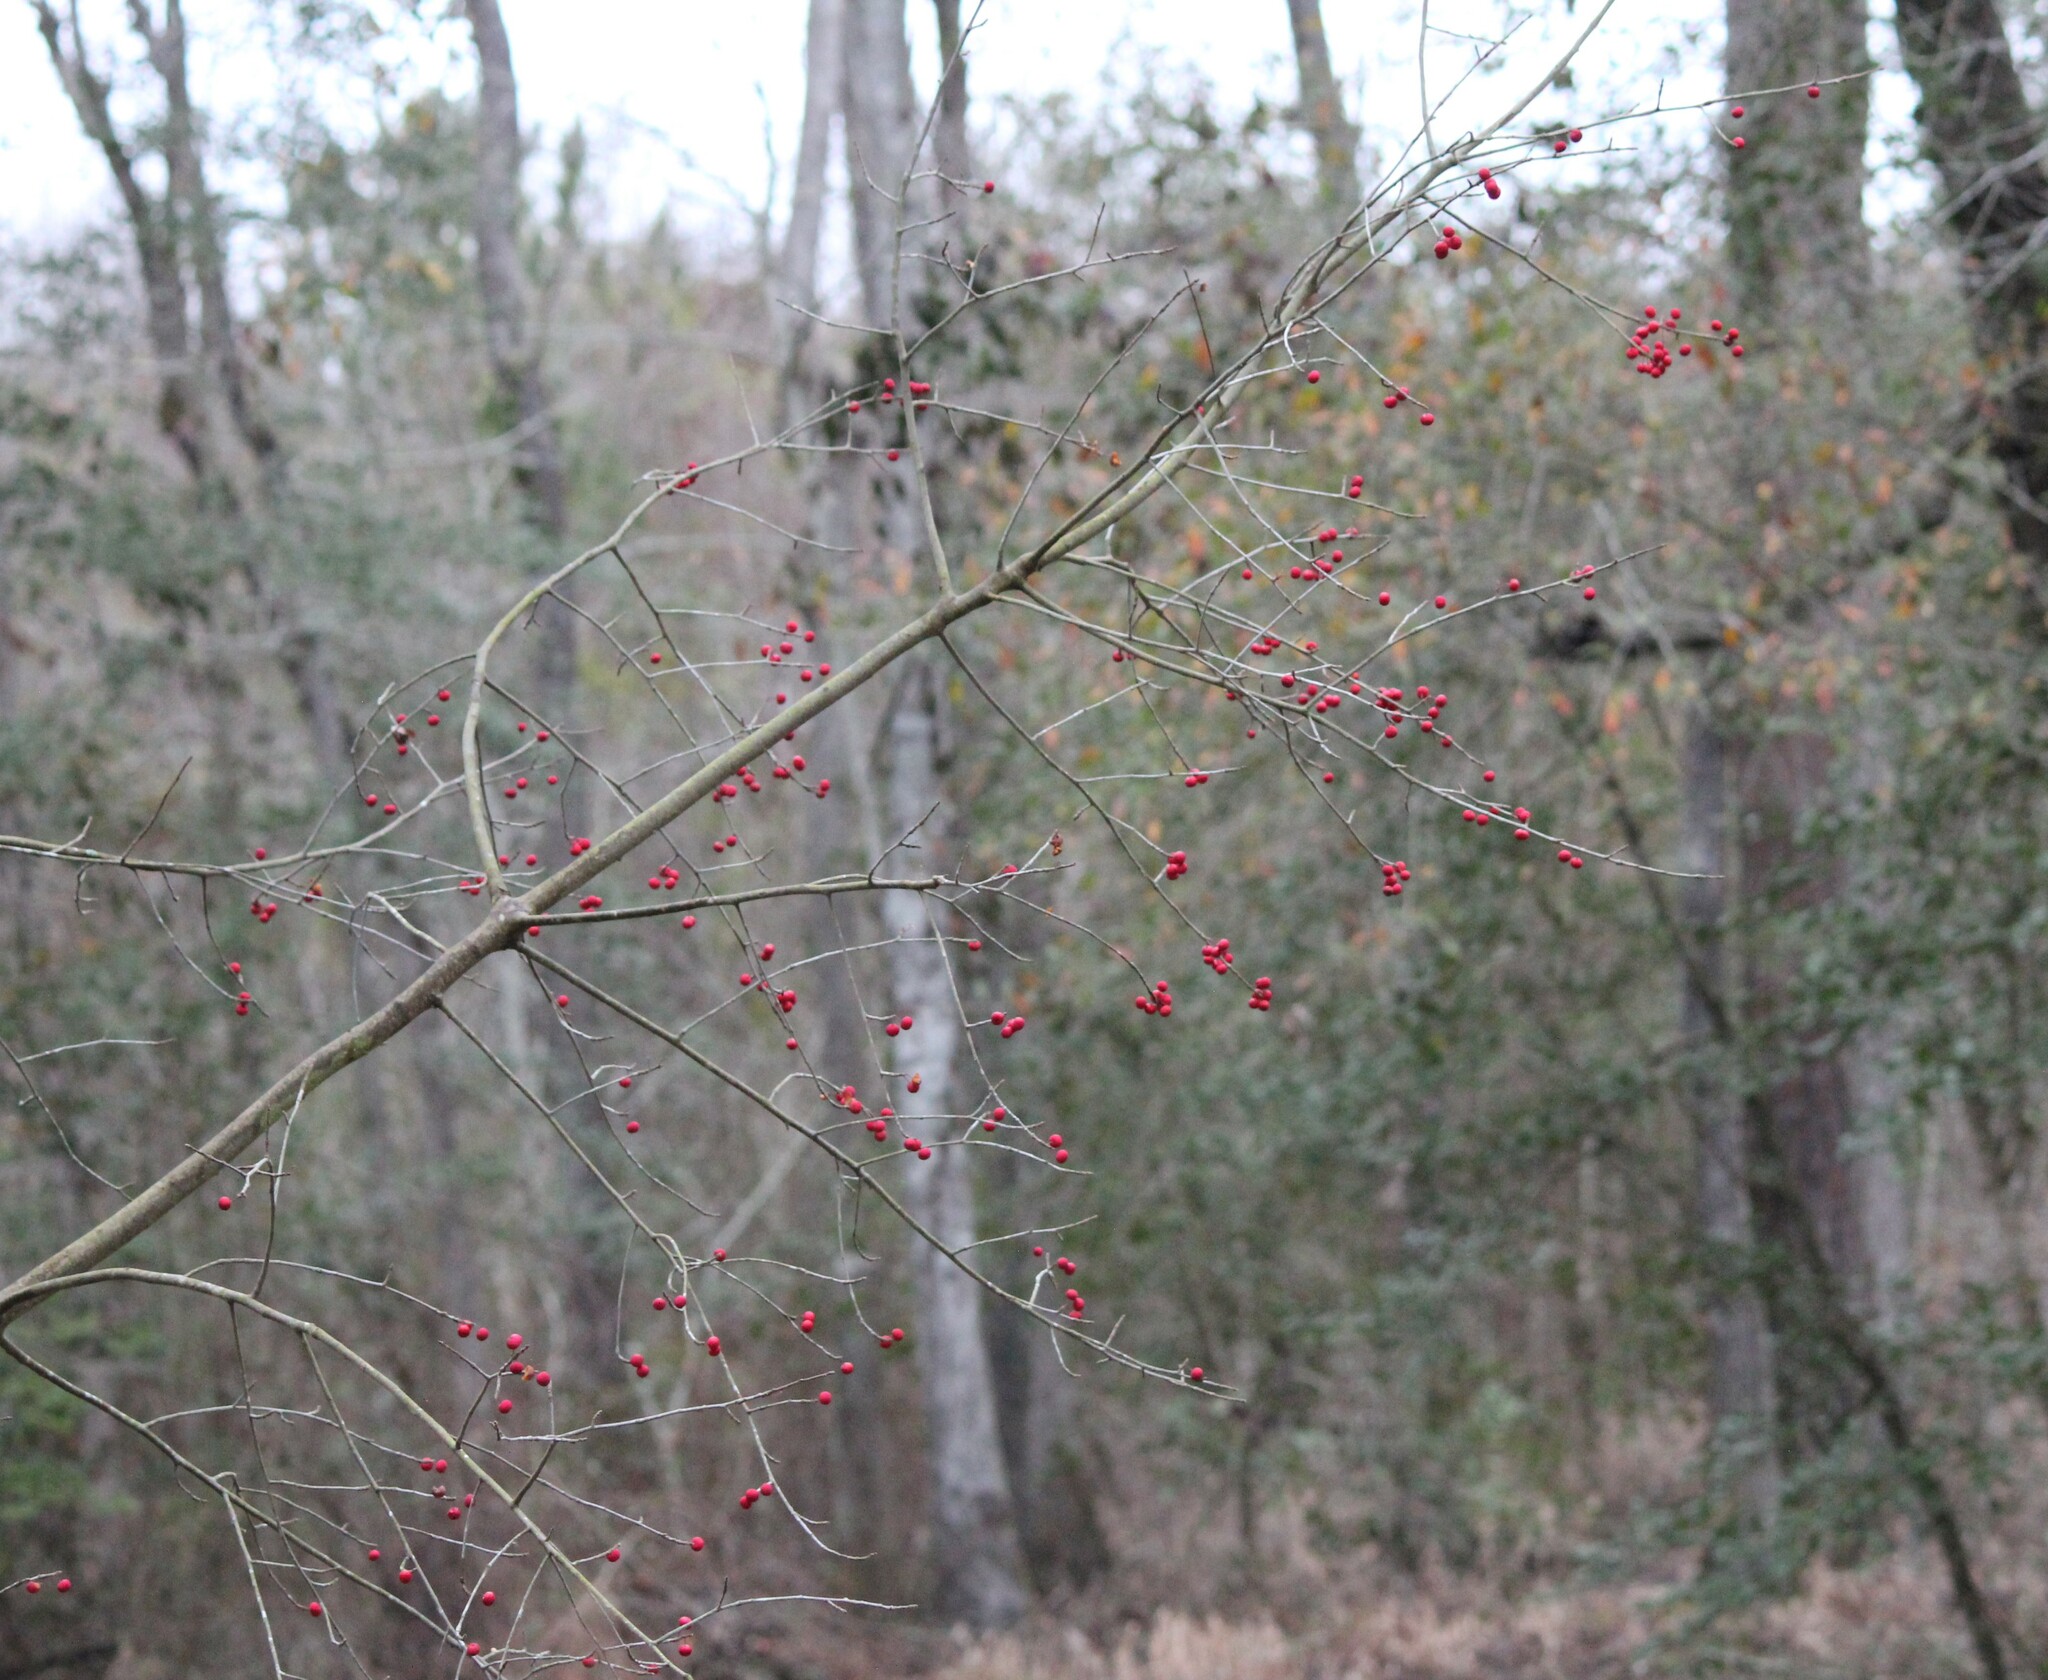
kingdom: Plantae
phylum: Tracheophyta
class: Magnoliopsida
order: Aquifoliales
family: Aquifoliaceae
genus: Ilex
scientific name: Ilex amelanchier
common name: Sarvis holly
